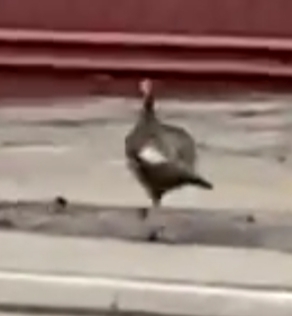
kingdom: Animalia
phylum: Chordata
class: Aves
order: Galliformes
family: Phasianidae
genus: Meleagris
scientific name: Meleagris gallopavo
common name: Wild turkey
